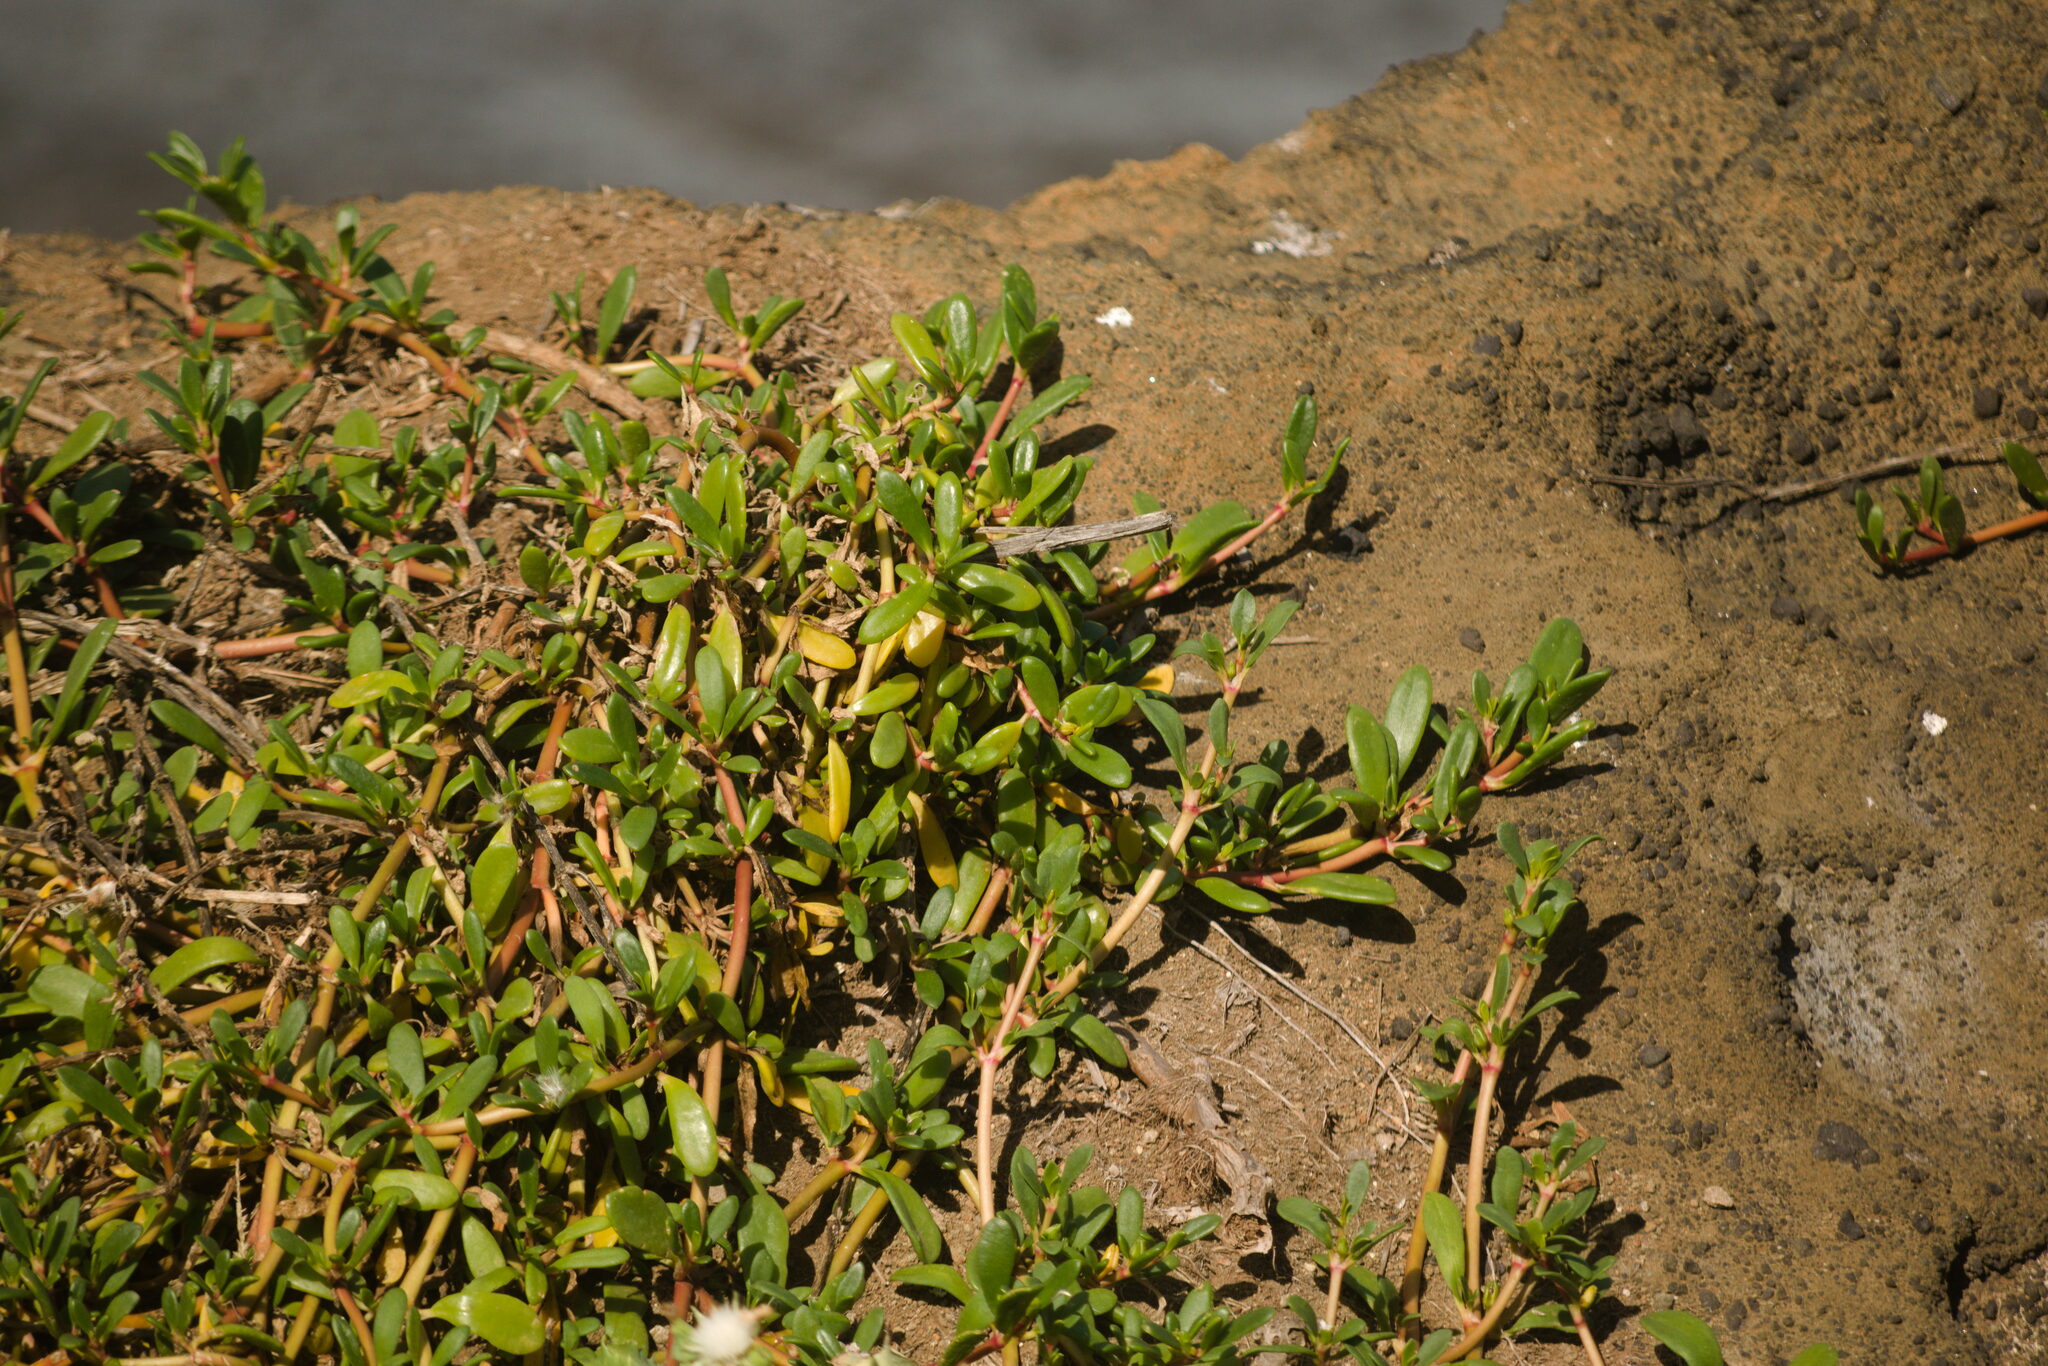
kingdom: Plantae
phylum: Tracheophyta
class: Magnoliopsida
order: Caryophyllales
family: Aizoaceae
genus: Sesuvium
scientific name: Sesuvium portulacastrum
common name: Sea-purslane
